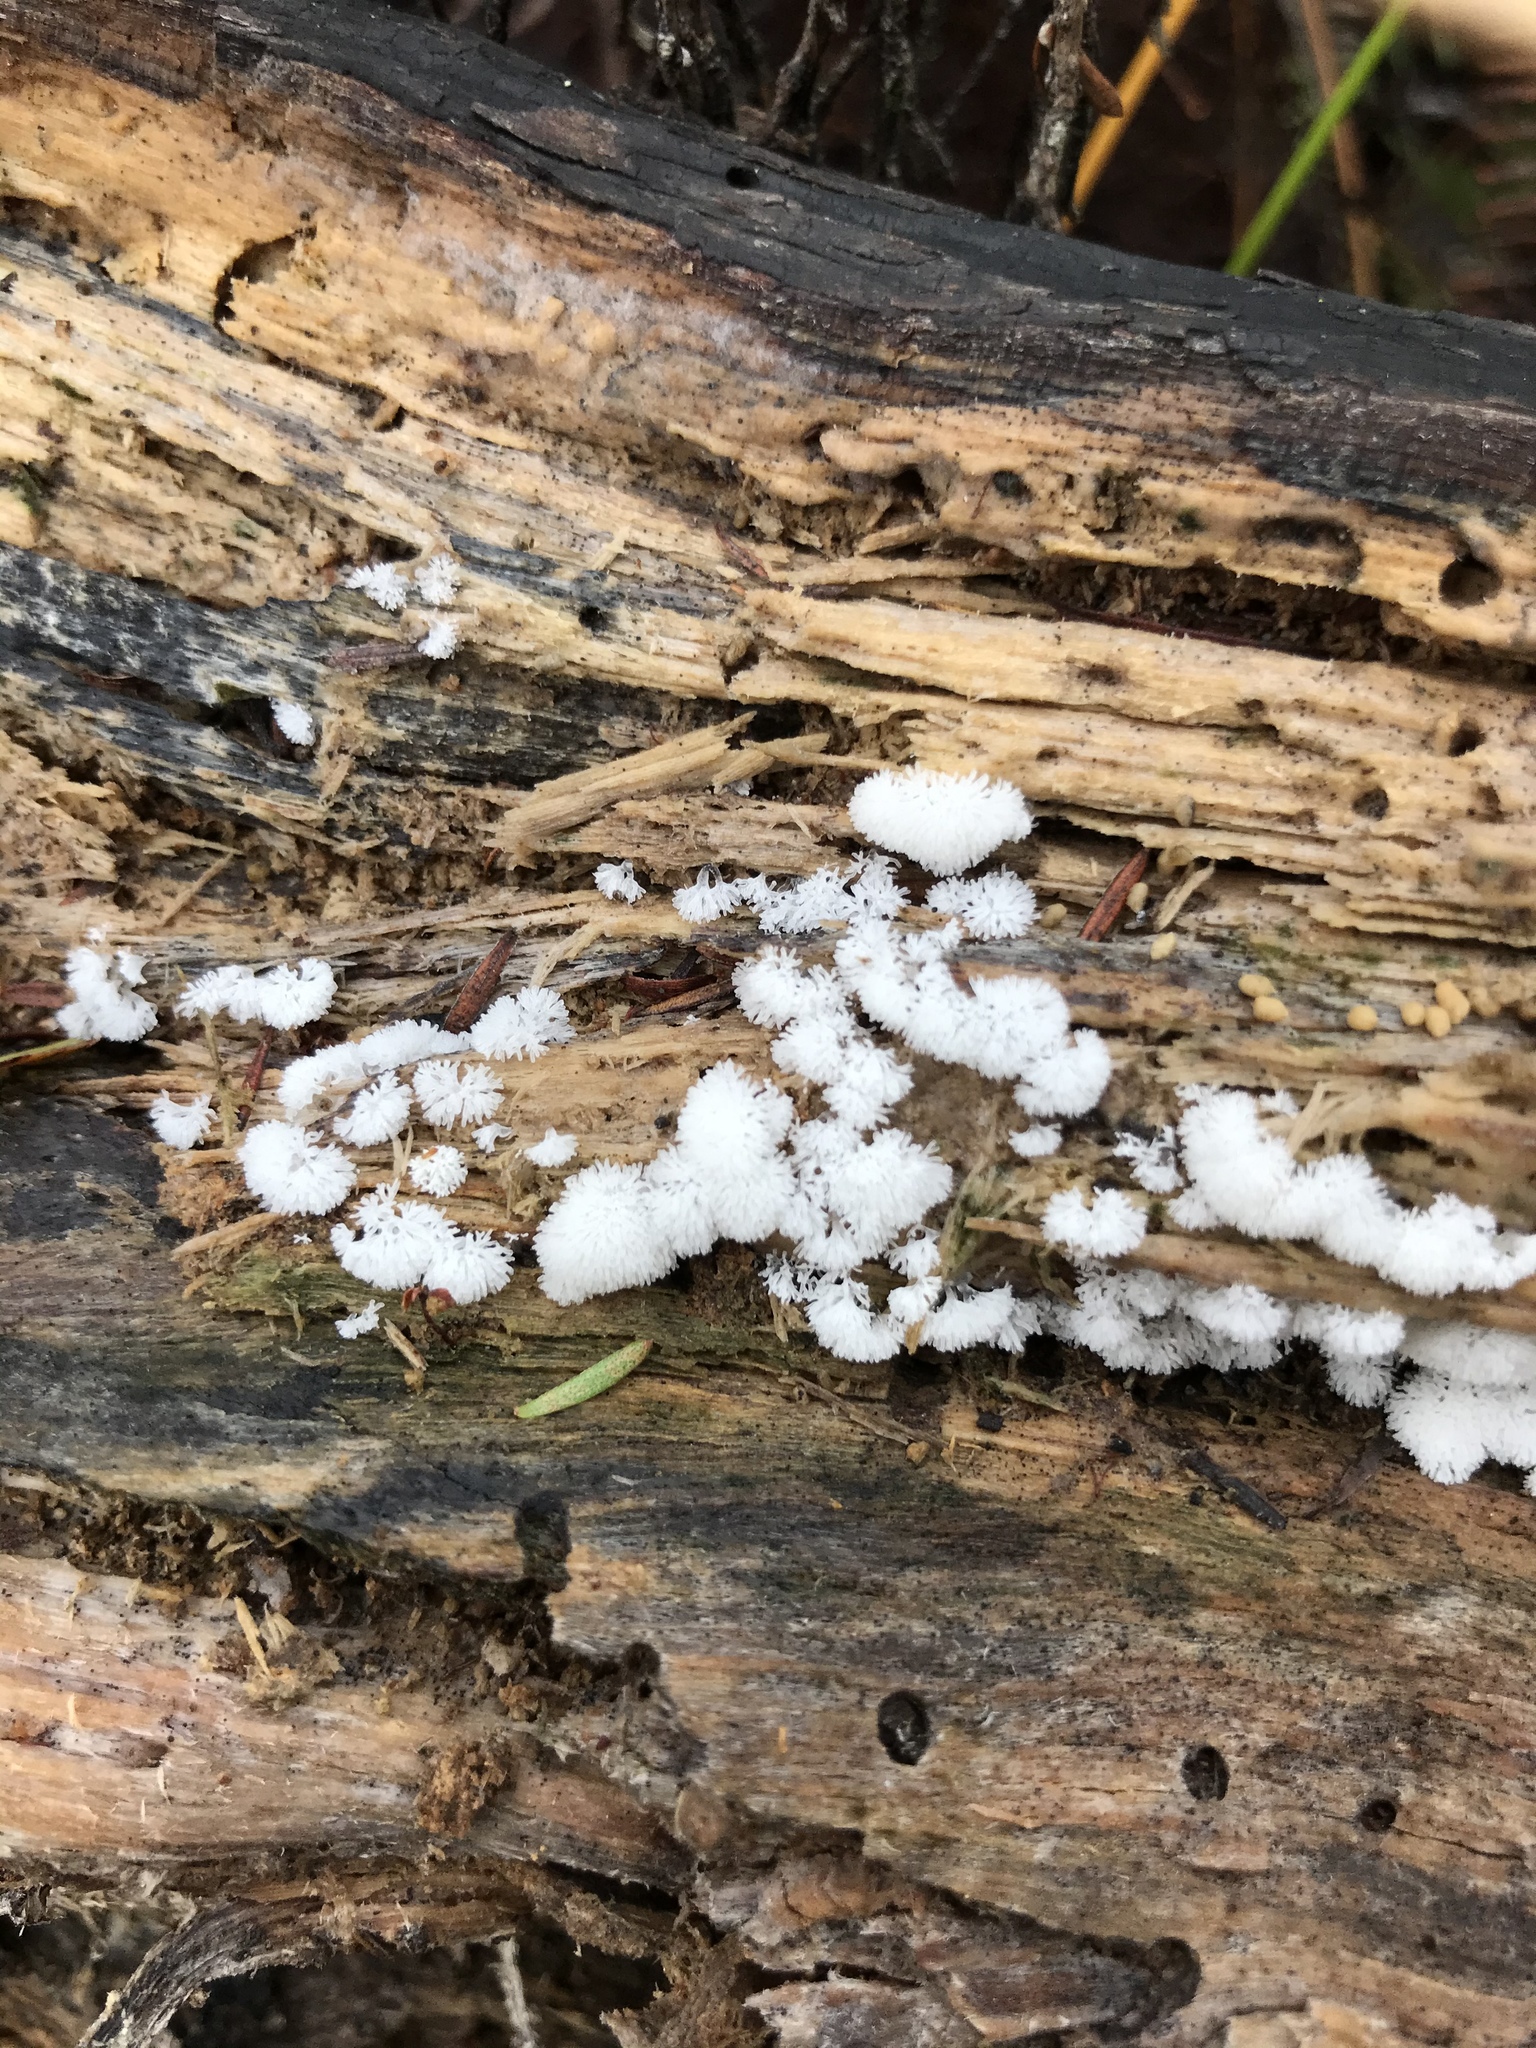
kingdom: Protozoa
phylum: Mycetozoa
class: Protosteliomycetes
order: Ceratiomyxales
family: Ceratiomyxaceae
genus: Ceratiomyxa
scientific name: Ceratiomyxa fruticulosa
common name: Honeycomb coral slime mold
